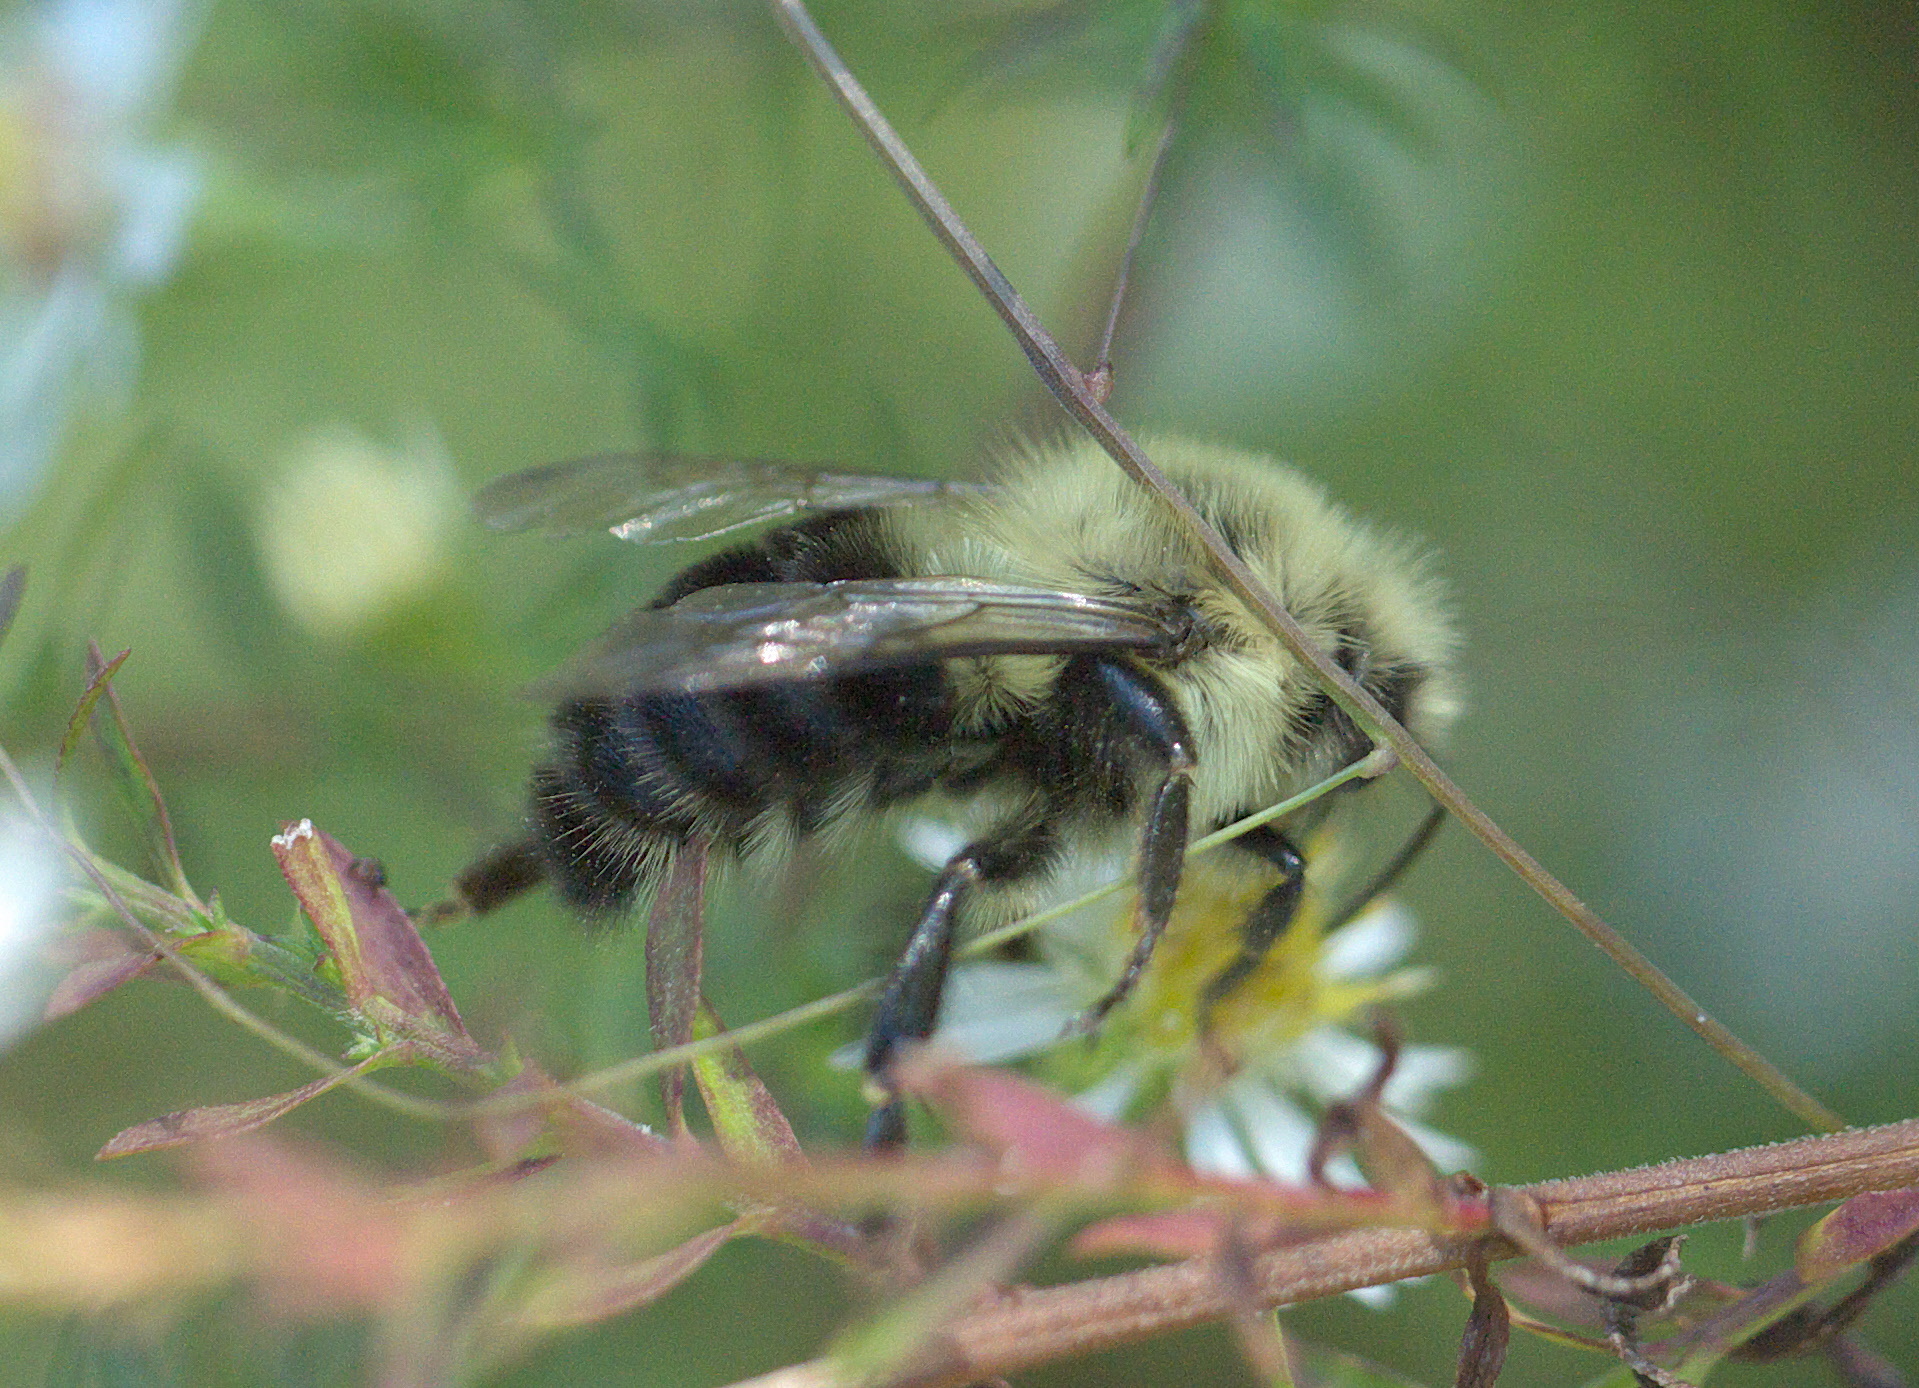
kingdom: Animalia
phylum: Arthropoda
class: Insecta
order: Hymenoptera
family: Apidae
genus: Bombus
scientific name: Bombus impatiens
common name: Common eastern bumble bee
